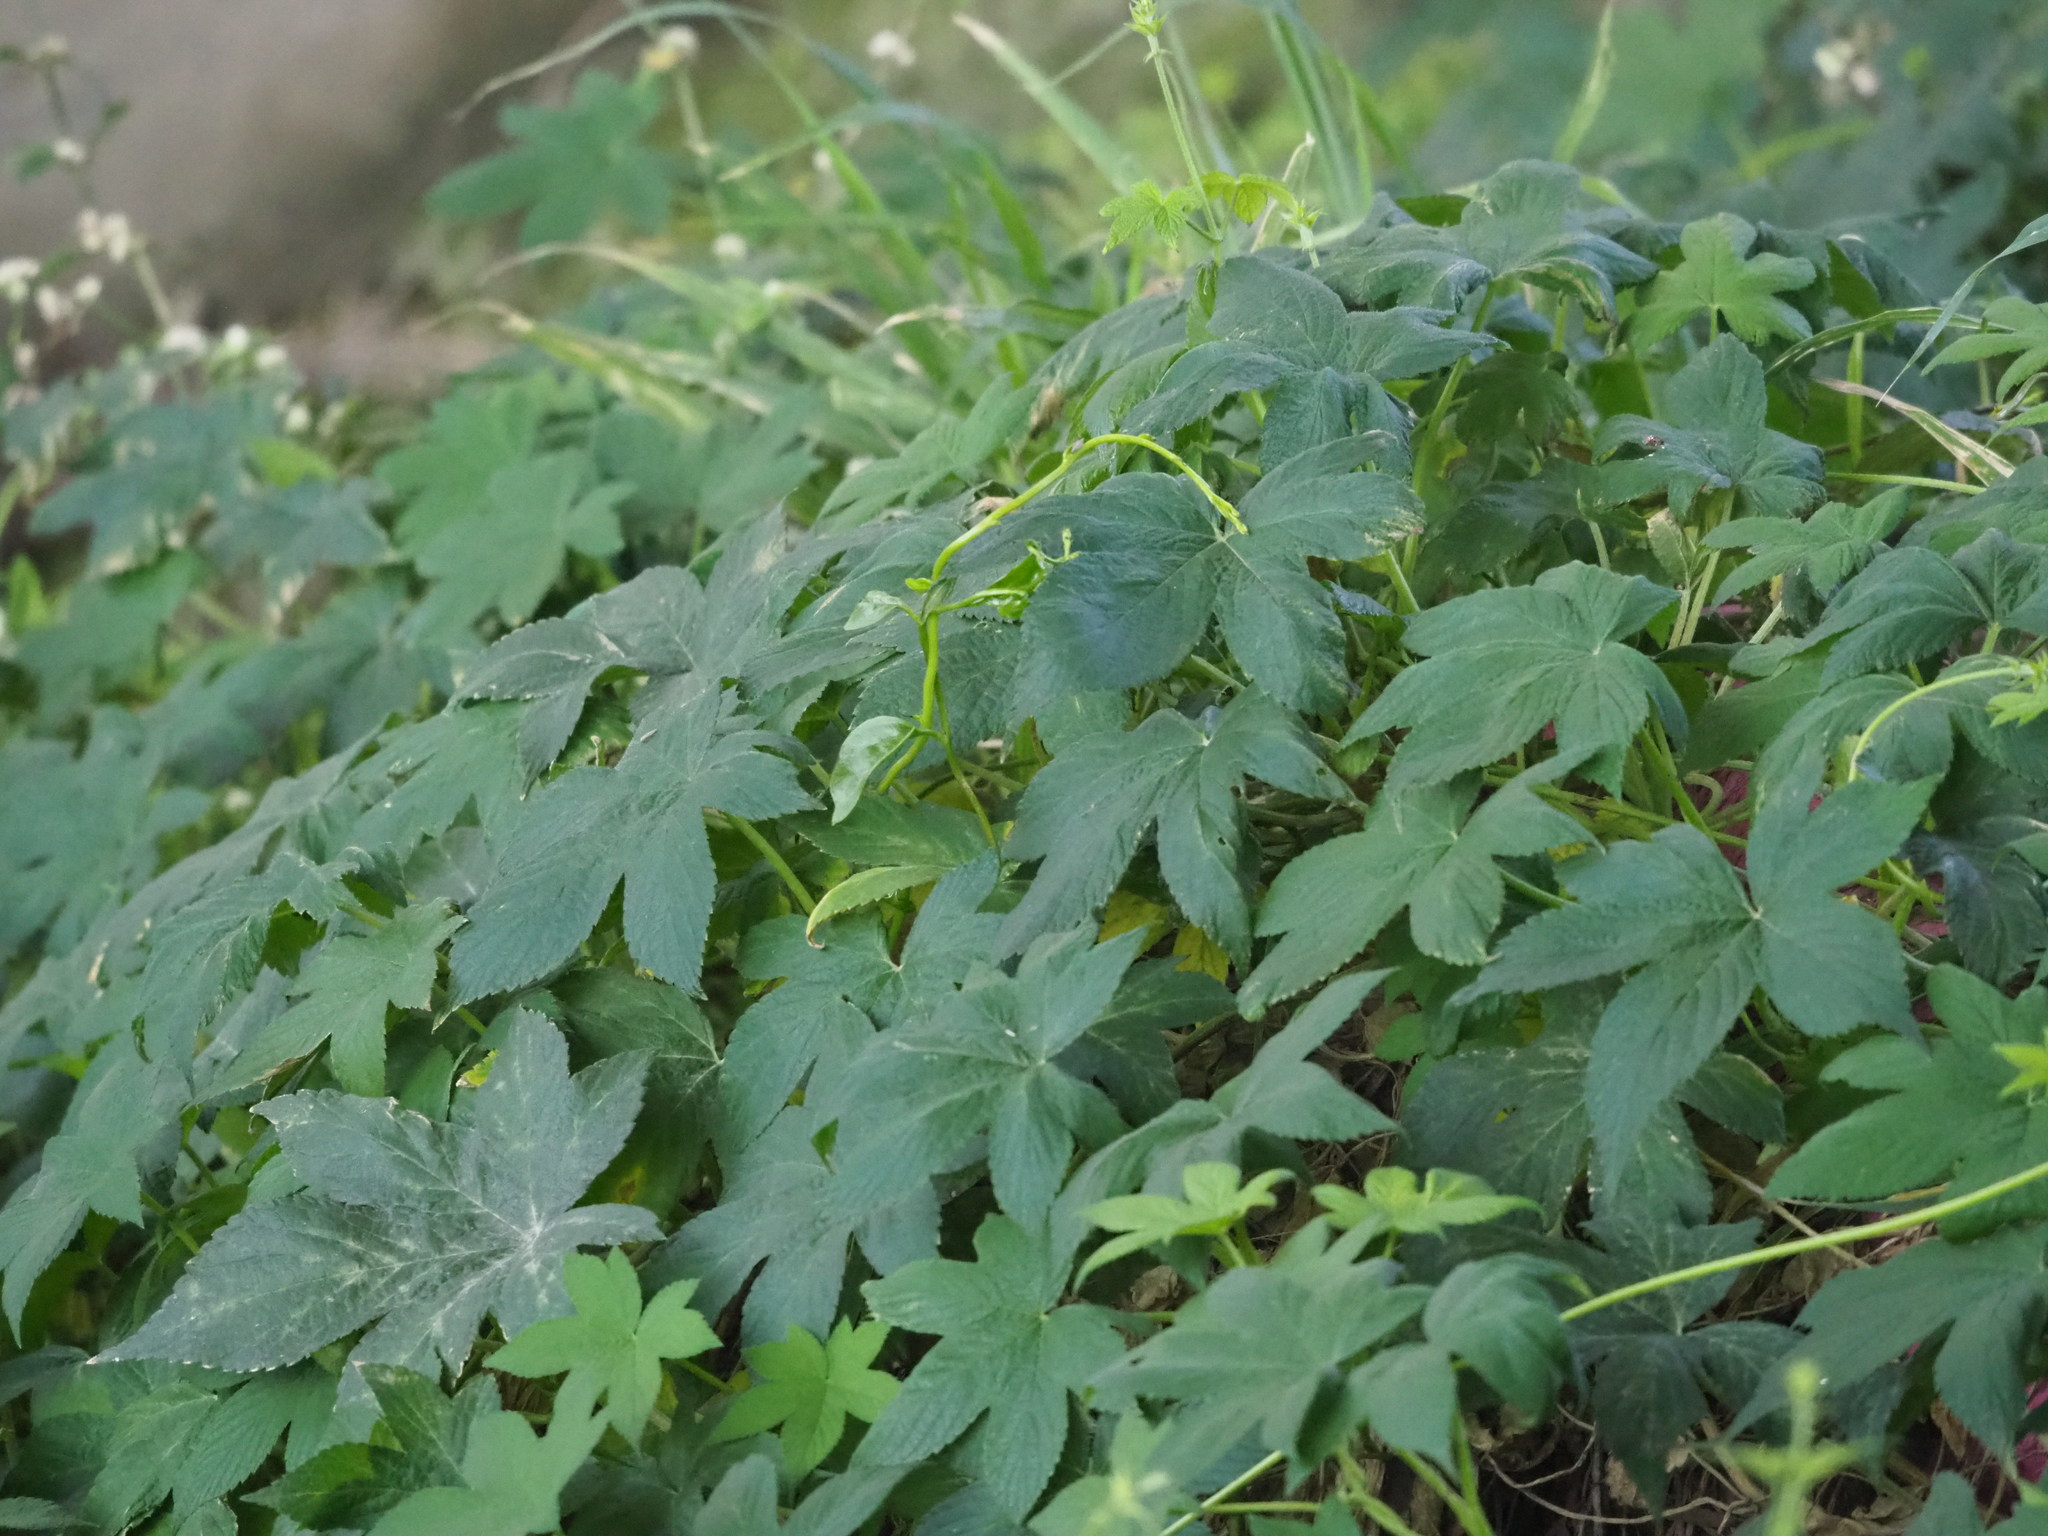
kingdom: Plantae
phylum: Tracheophyta
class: Magnoliopsida
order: Rosales
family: Cannabaceae
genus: Humulus
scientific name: Humulus scandens
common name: Japanese hop
